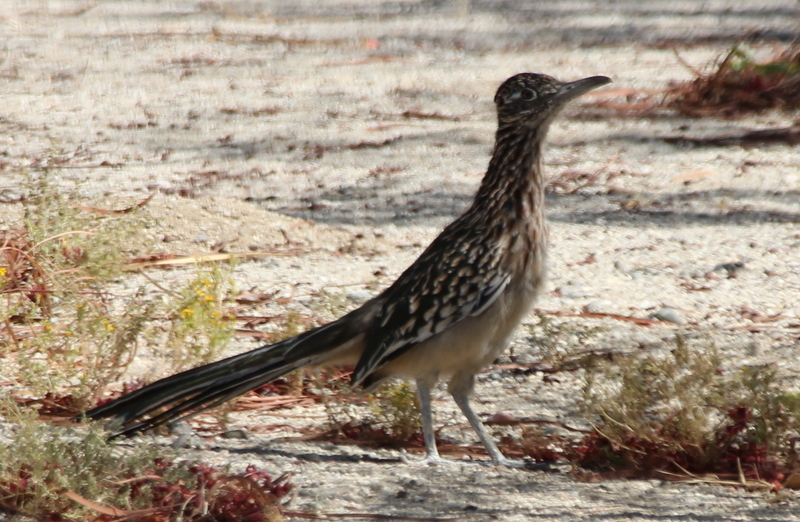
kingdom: Animalia
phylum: Chordata
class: Aves
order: Cuculiformes
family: Cuculidae
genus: Geococcyx
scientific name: Geococcyx californianus
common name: Greater roadrunner
